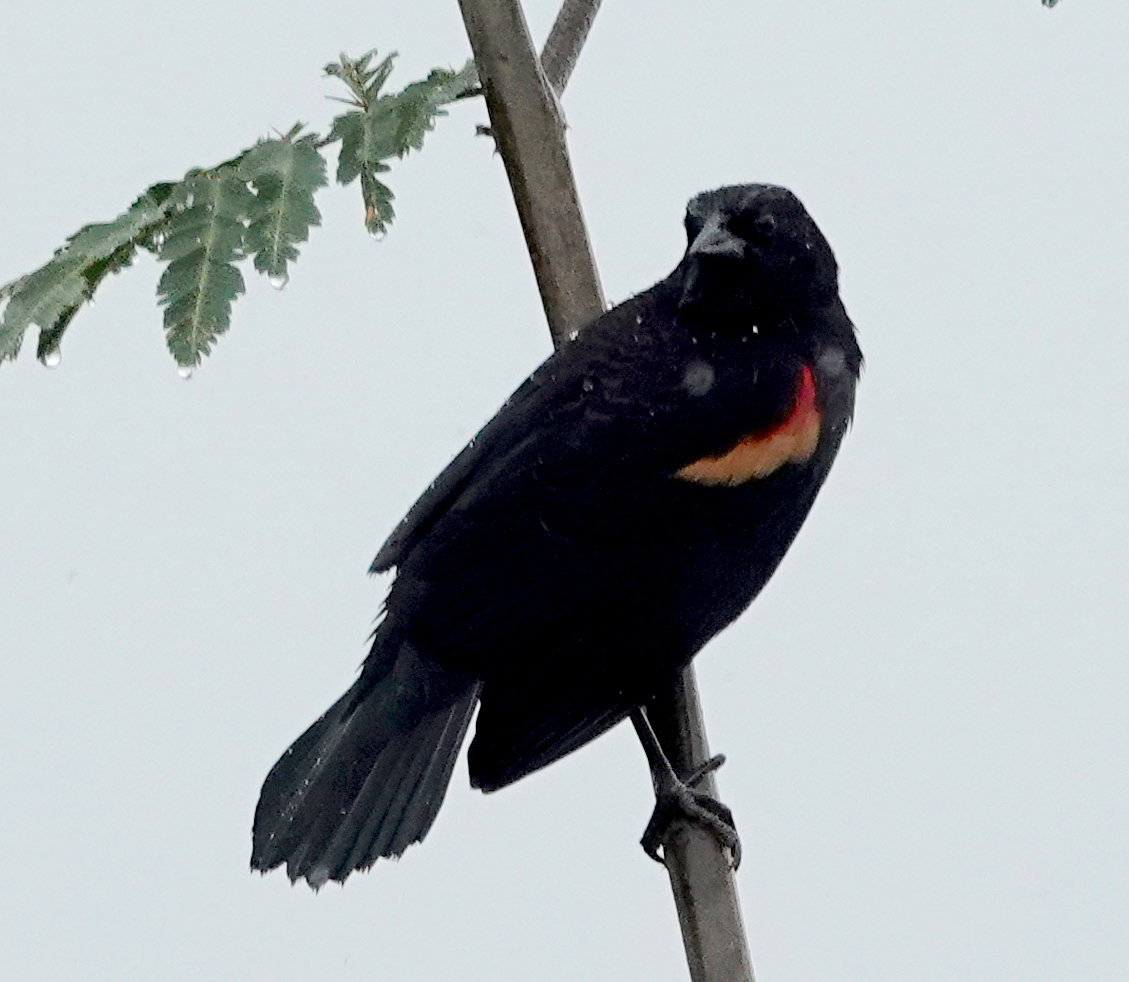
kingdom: Animalia
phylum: Chordata
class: Aves
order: Passeriformes
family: Icteridae
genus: Agelaius
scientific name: Agelaius phoeniceus
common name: Red-winged blackbird
